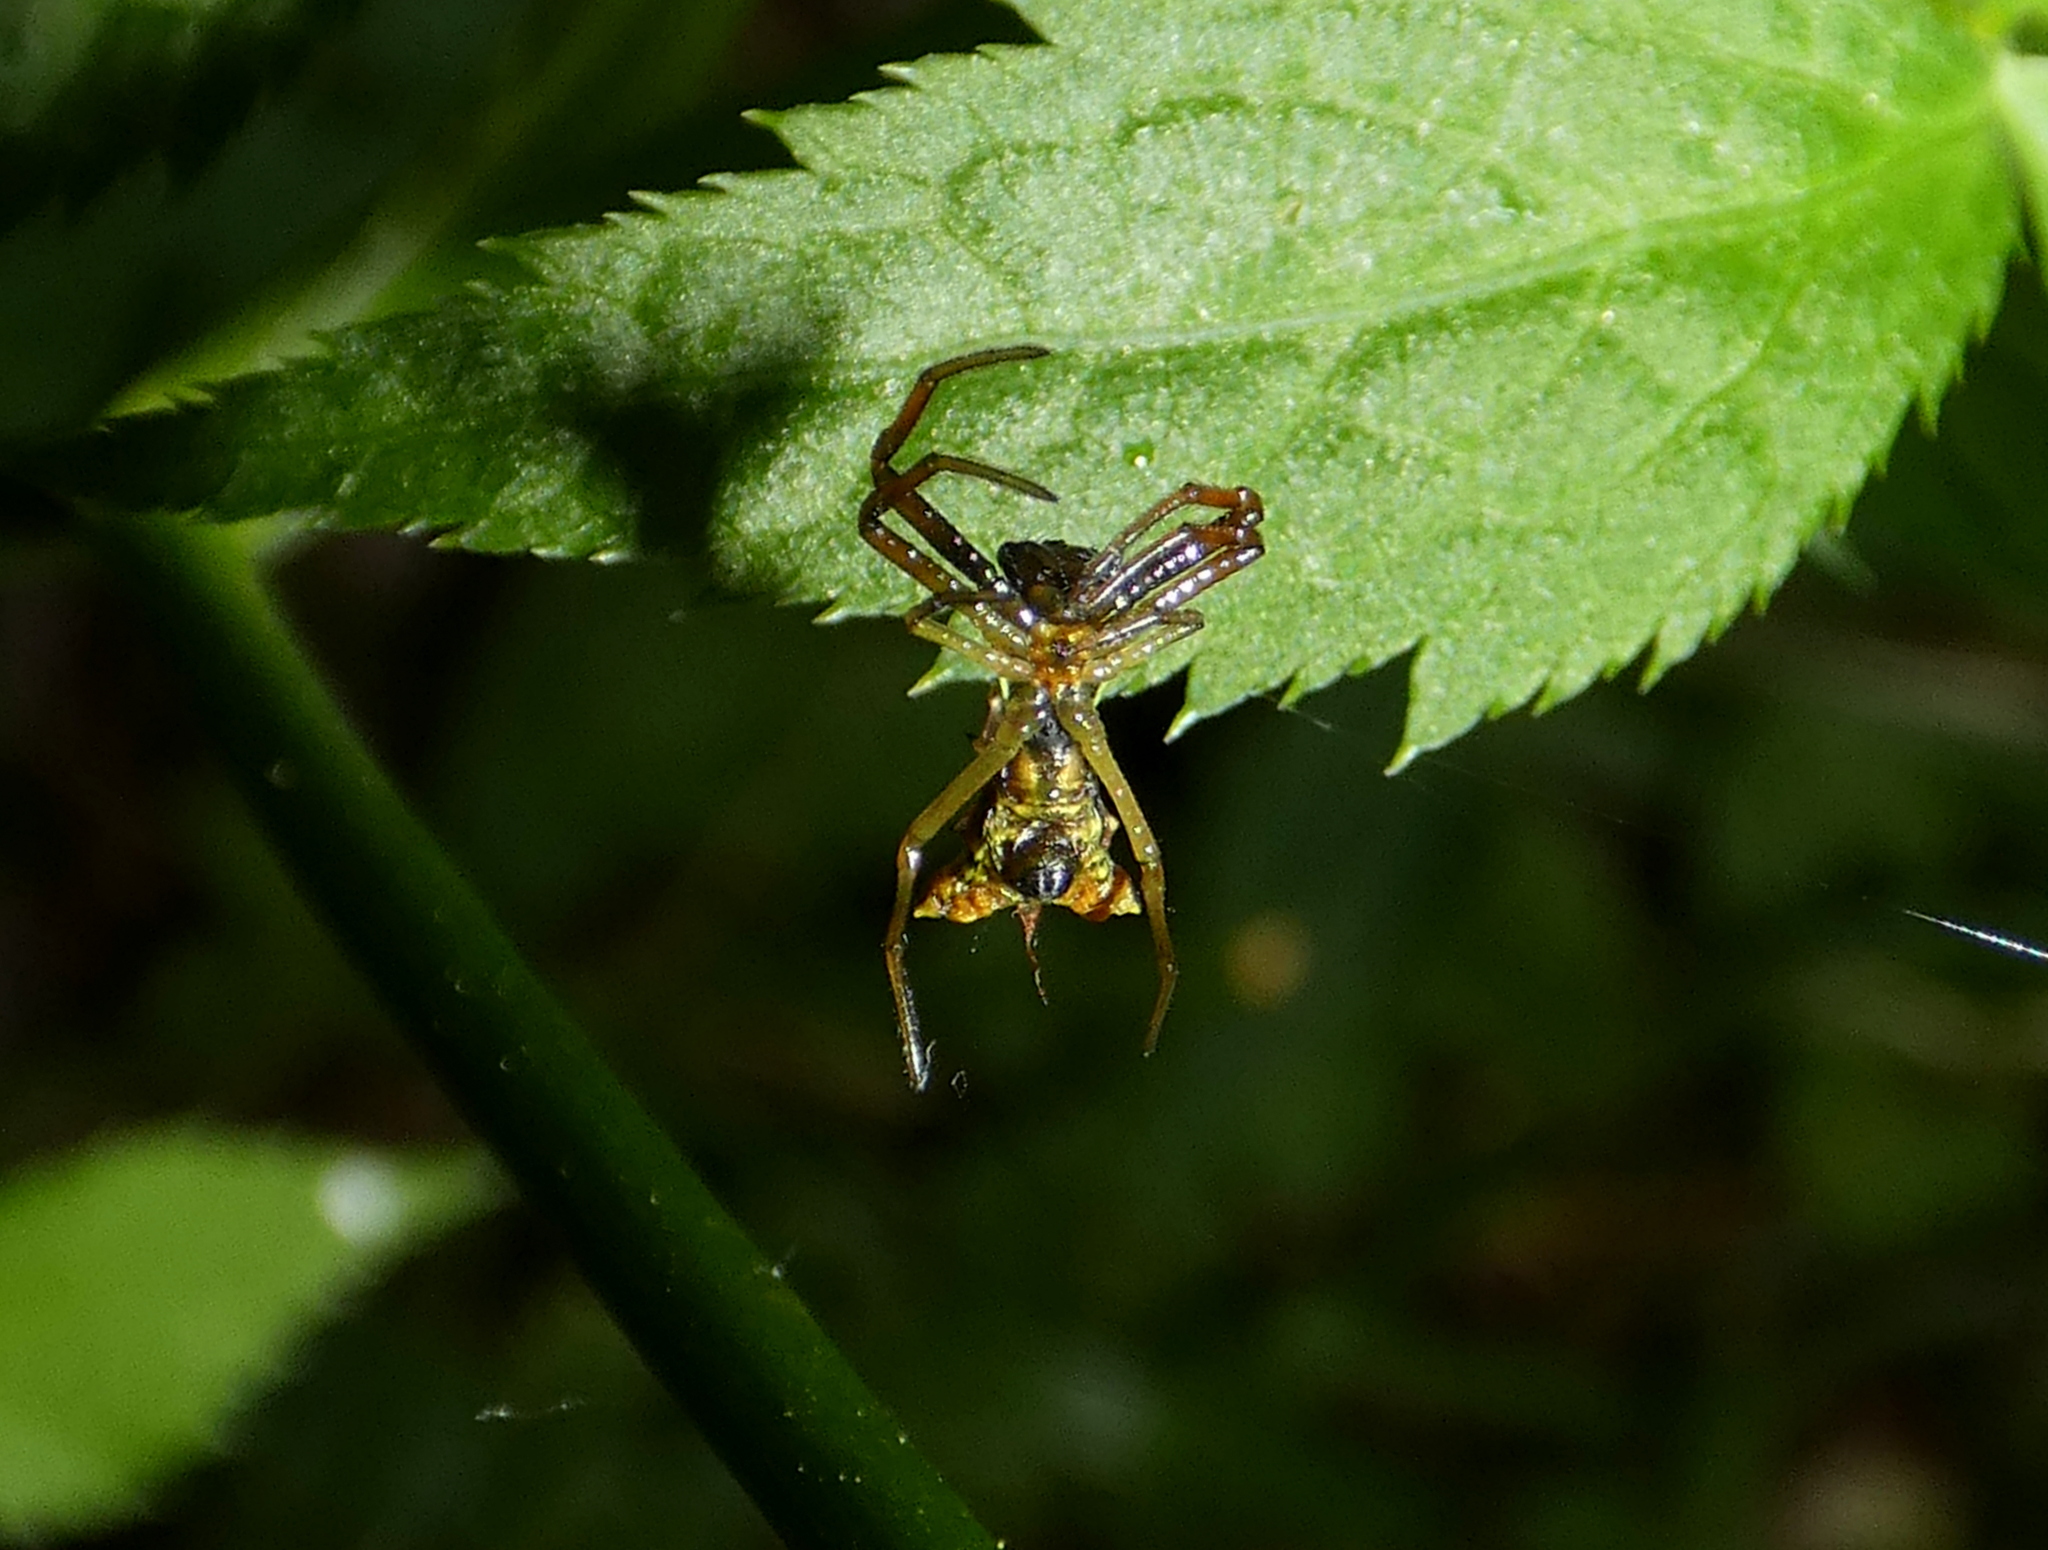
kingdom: Animalia
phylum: Arthropoda
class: Arachnida
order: Araneae
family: Araneidae
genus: Micrathena
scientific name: Micrathena sagittata
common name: Orb weavers
